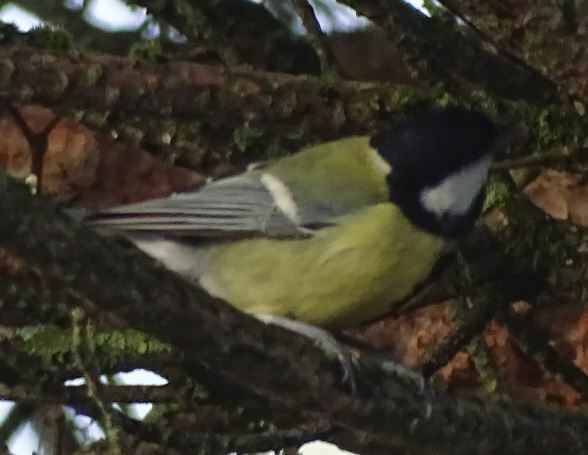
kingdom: Animalia
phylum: Chordata
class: Aves
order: Passeriformes
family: Paridae
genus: Parus
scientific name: Parus major
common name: Great tit
